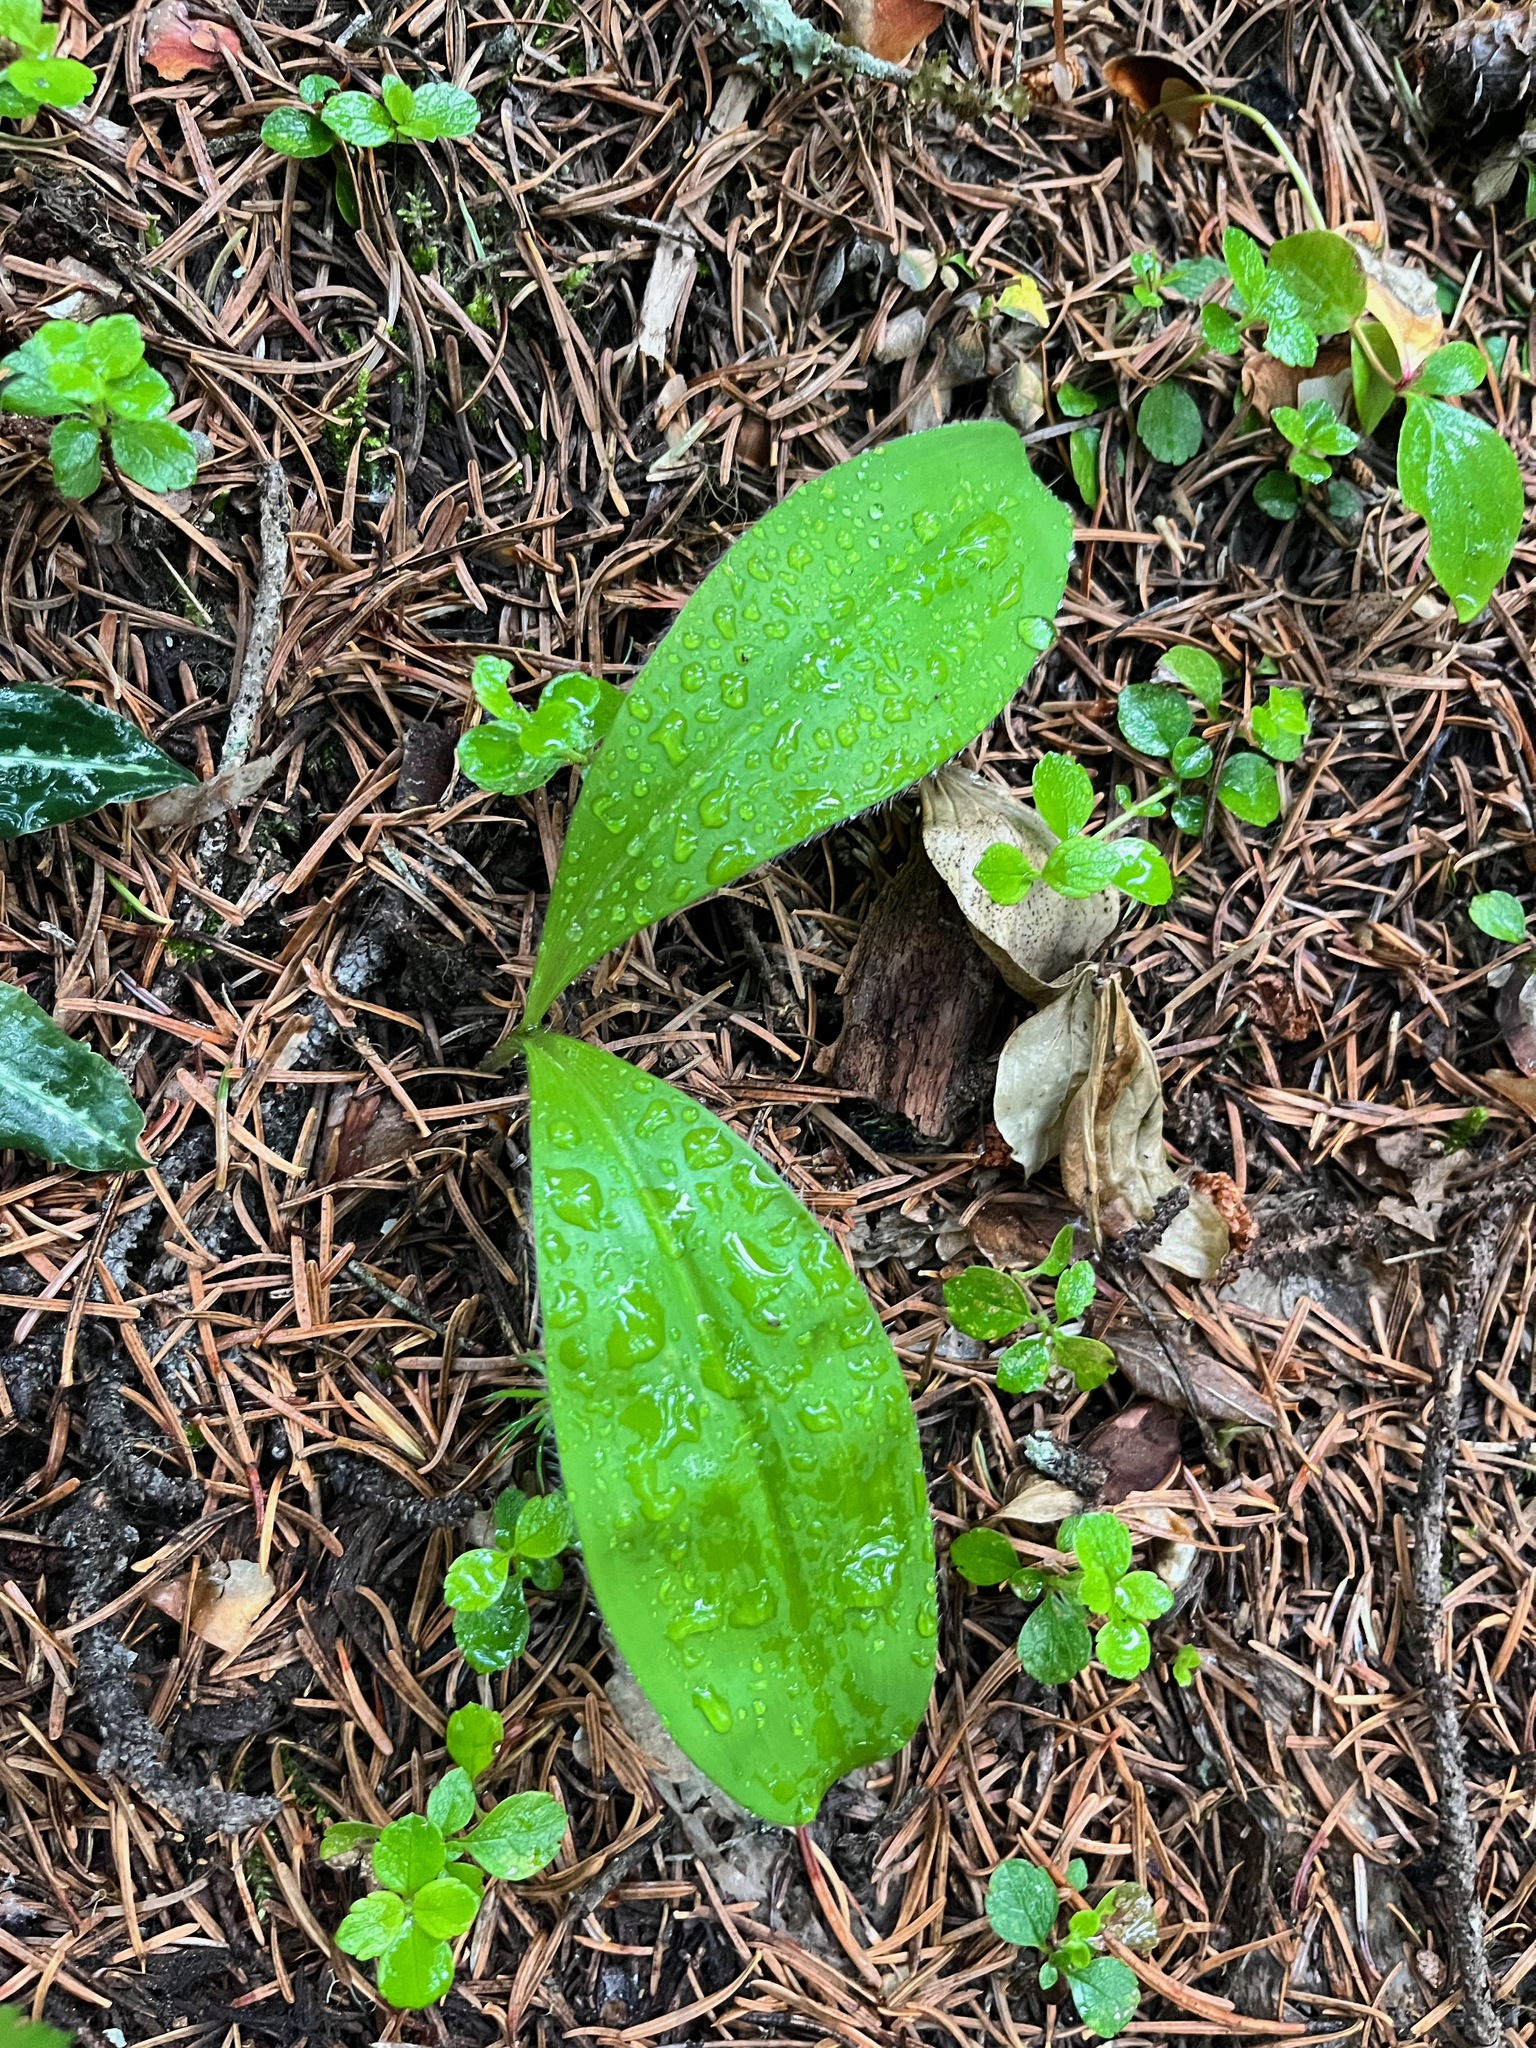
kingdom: Plantae
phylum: Tracheophyta
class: Liliopsida
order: Liliales
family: Liliaceae
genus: Clintonia
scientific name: Clintonia uniflora
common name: Queen's cup
